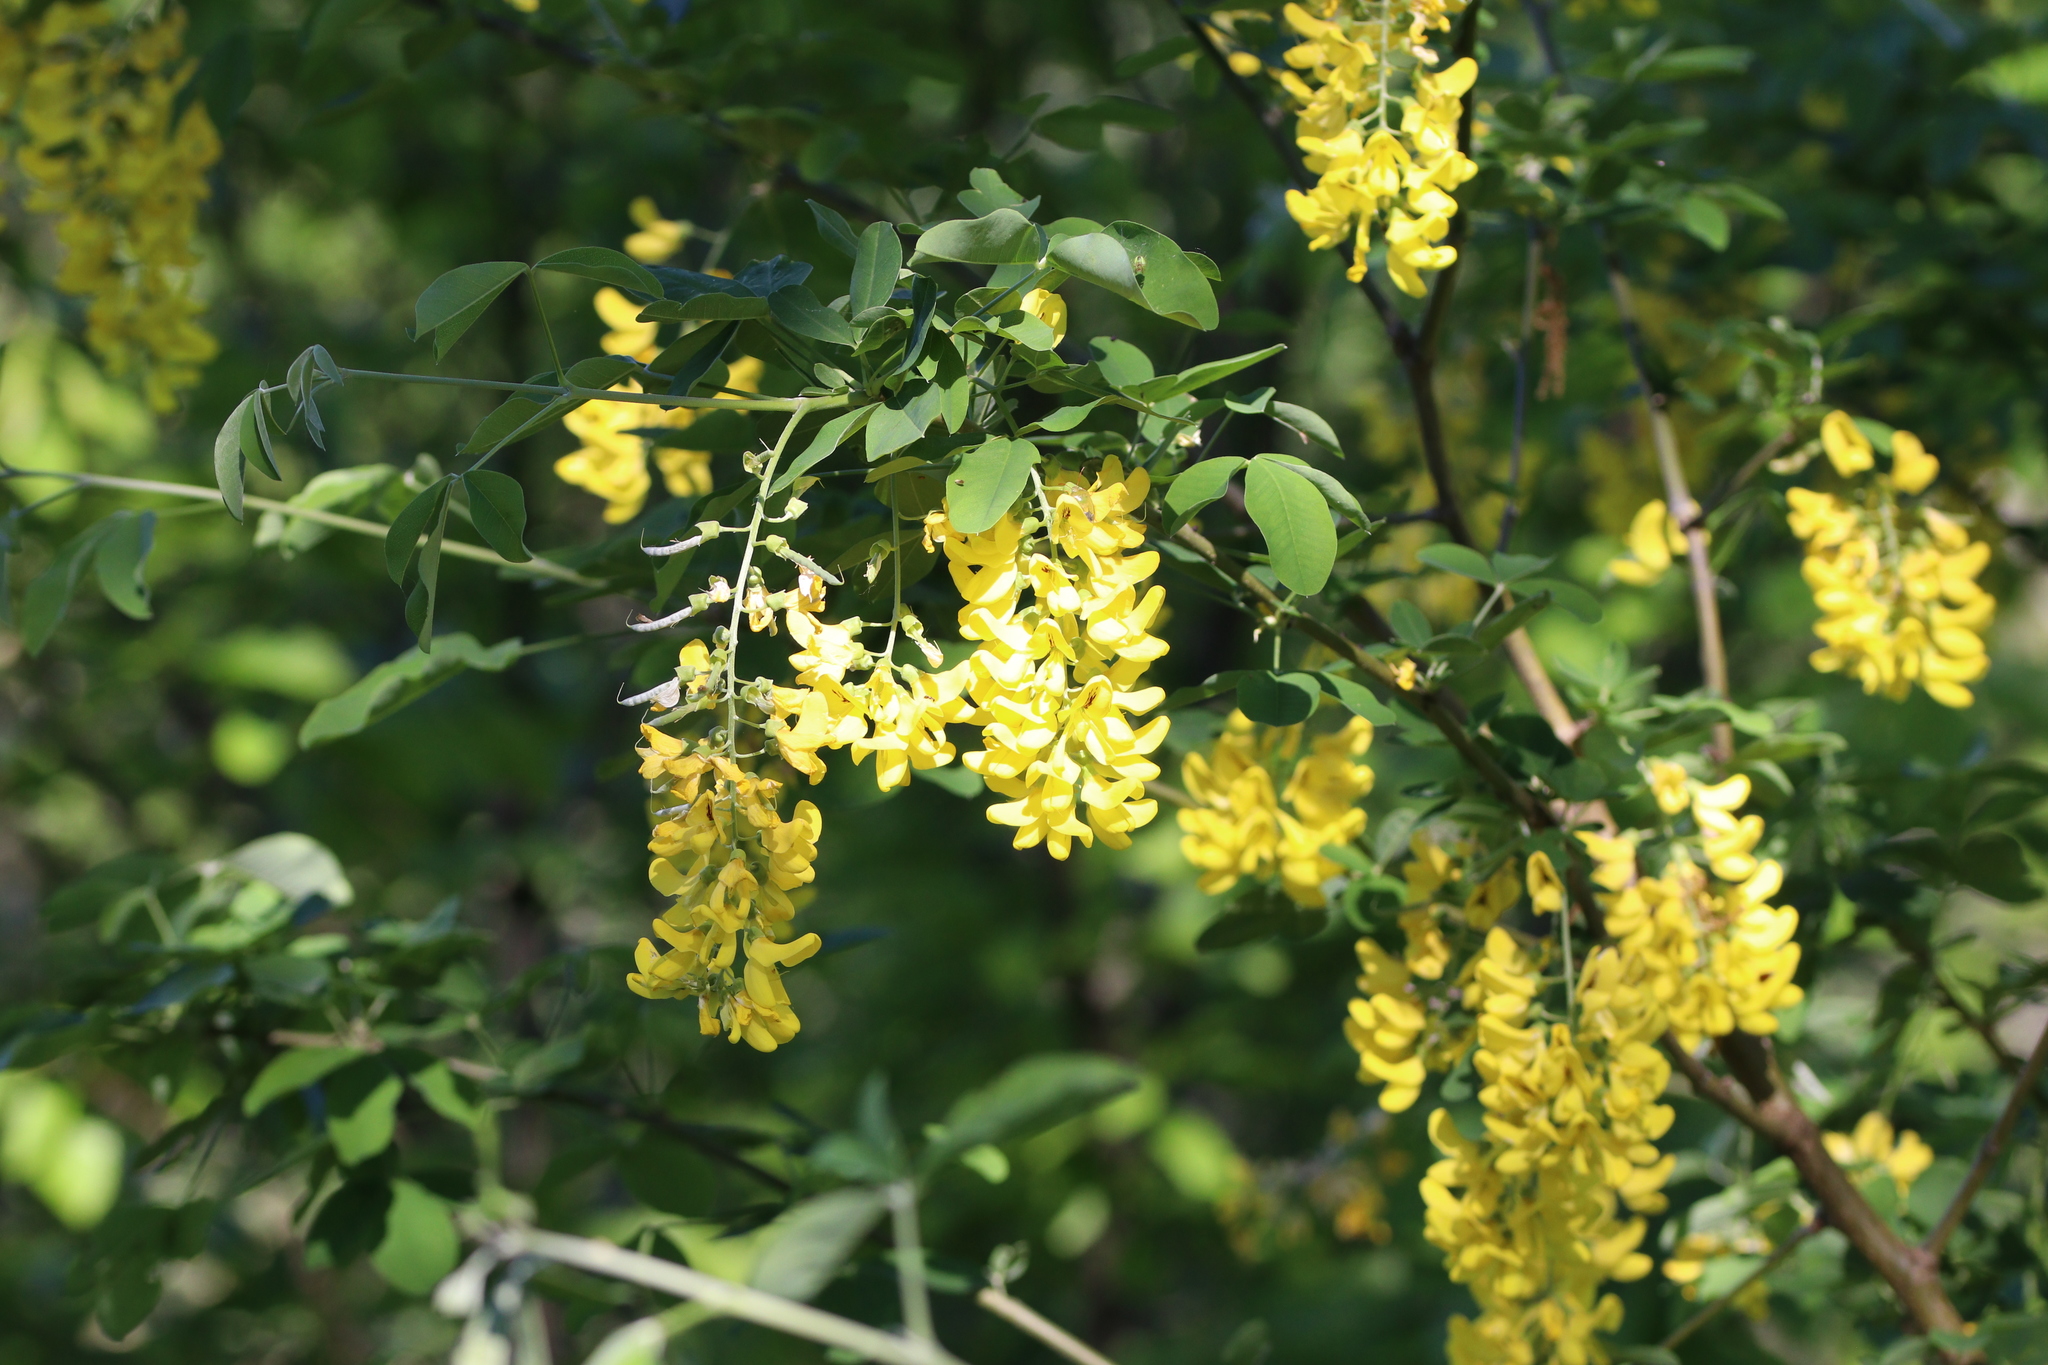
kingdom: Plantae
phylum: Tracheophyta
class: Magnoliopsida
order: Fabales
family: Fabaceae
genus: Laburnum
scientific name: Laburnum anagyroides
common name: Laburnum
